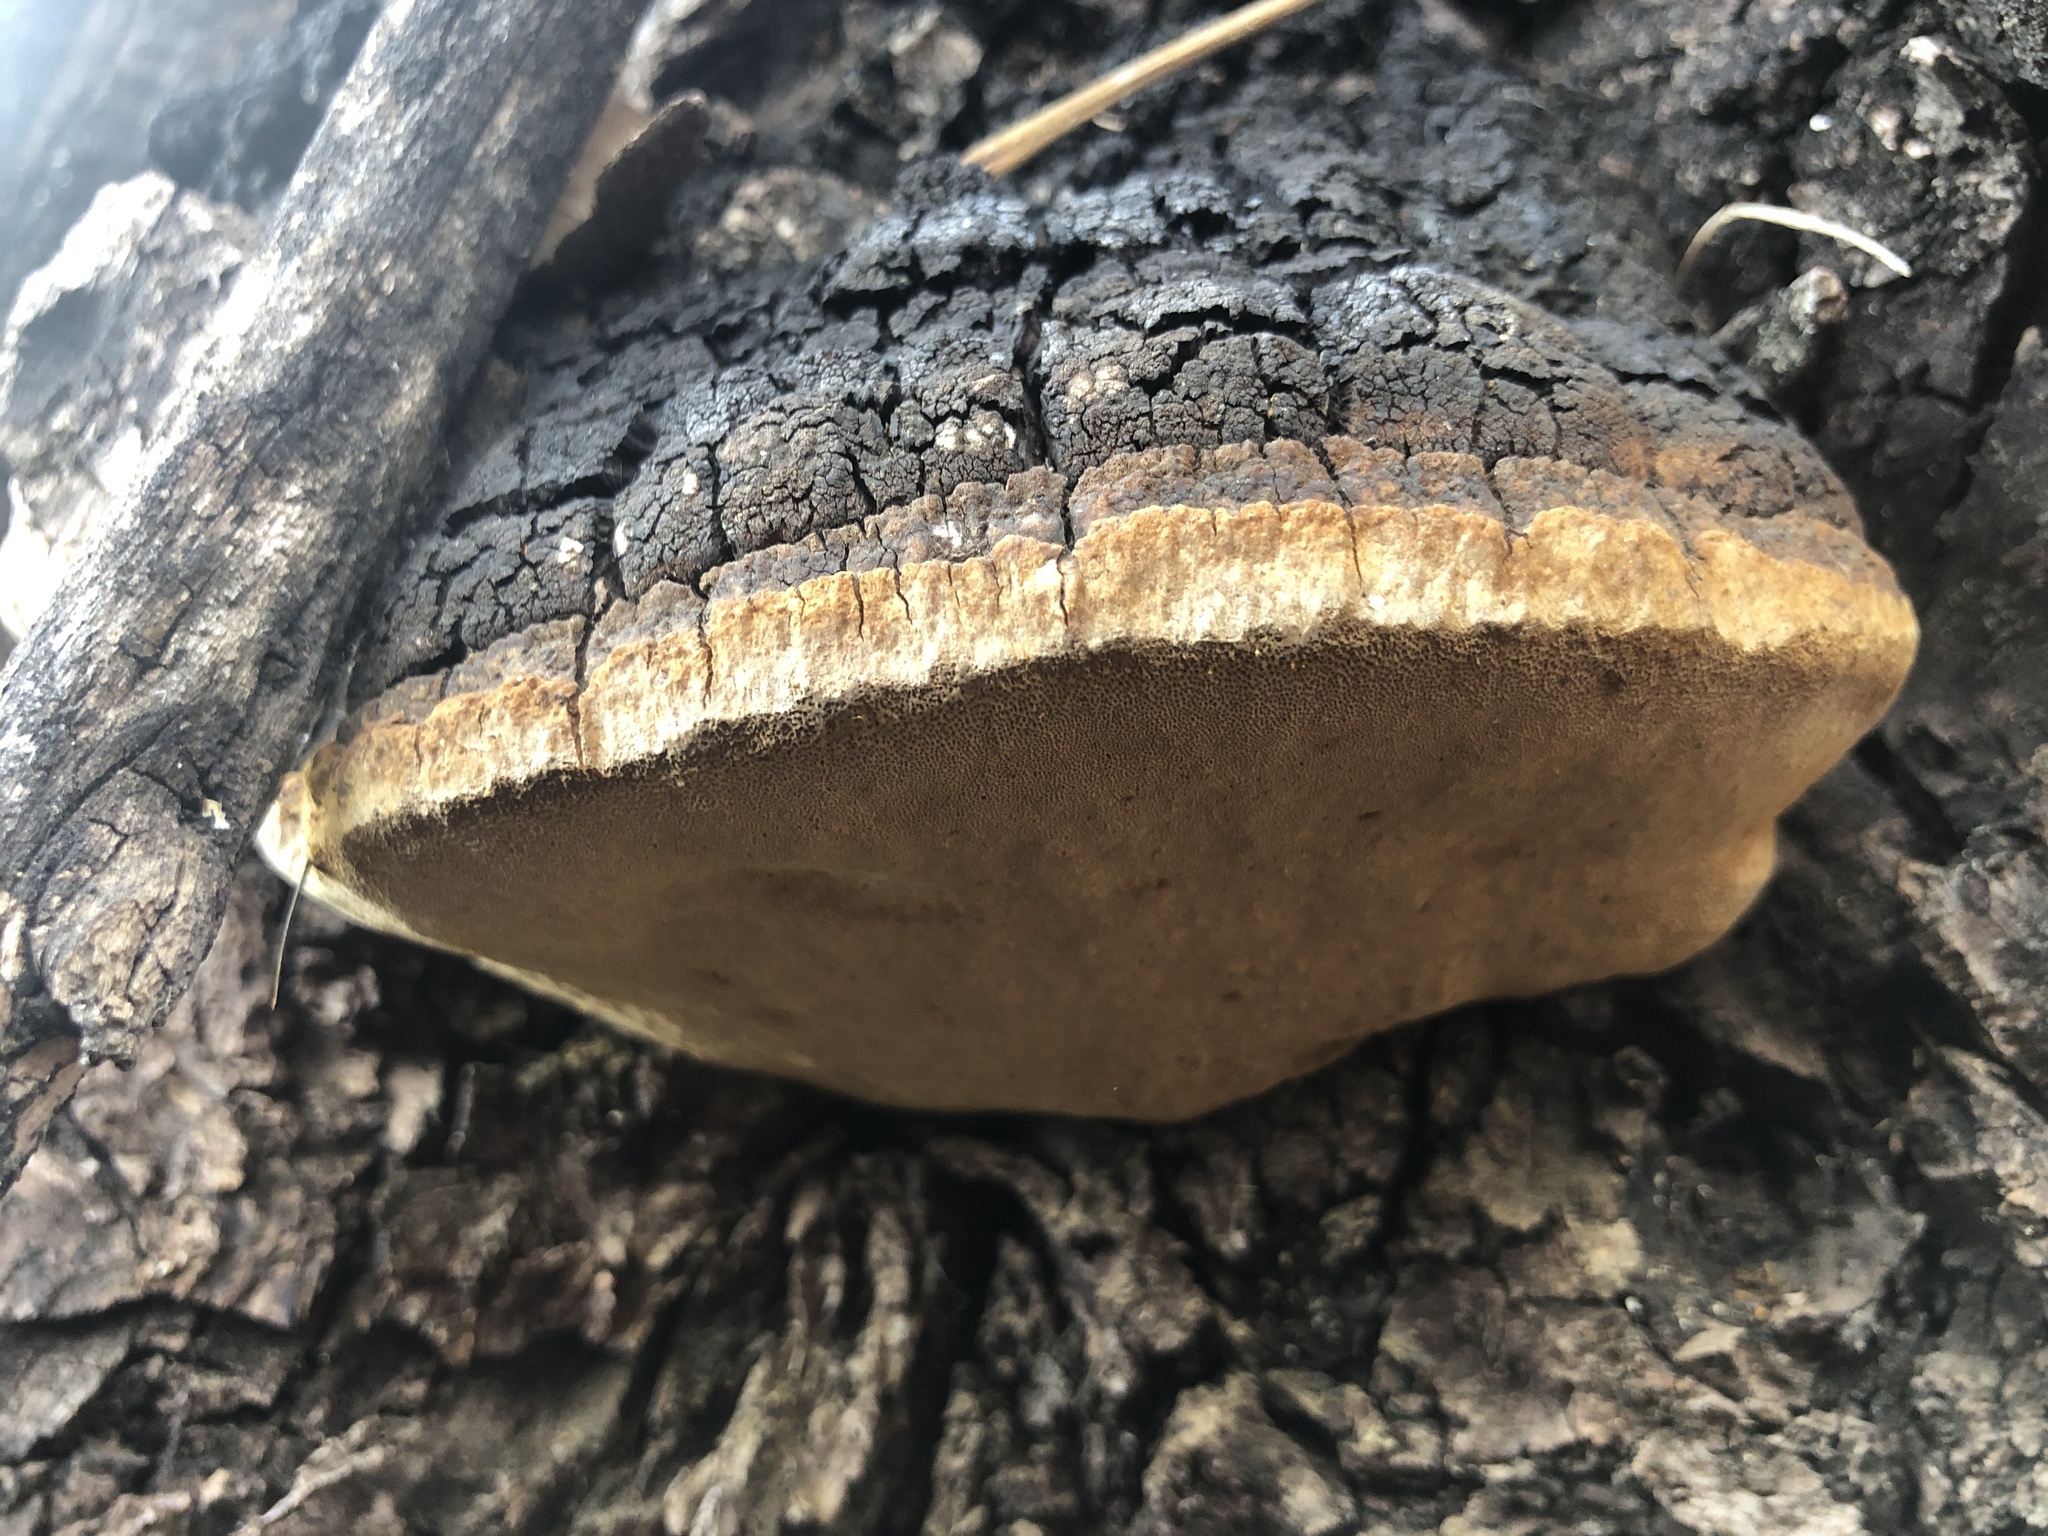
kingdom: Fungi
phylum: Basidiomycota
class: Agaricomycetes
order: Hymenochaetales
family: Hymenochaetaceae
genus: Sanghuangporus
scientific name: Sanghuangporus weirianus
